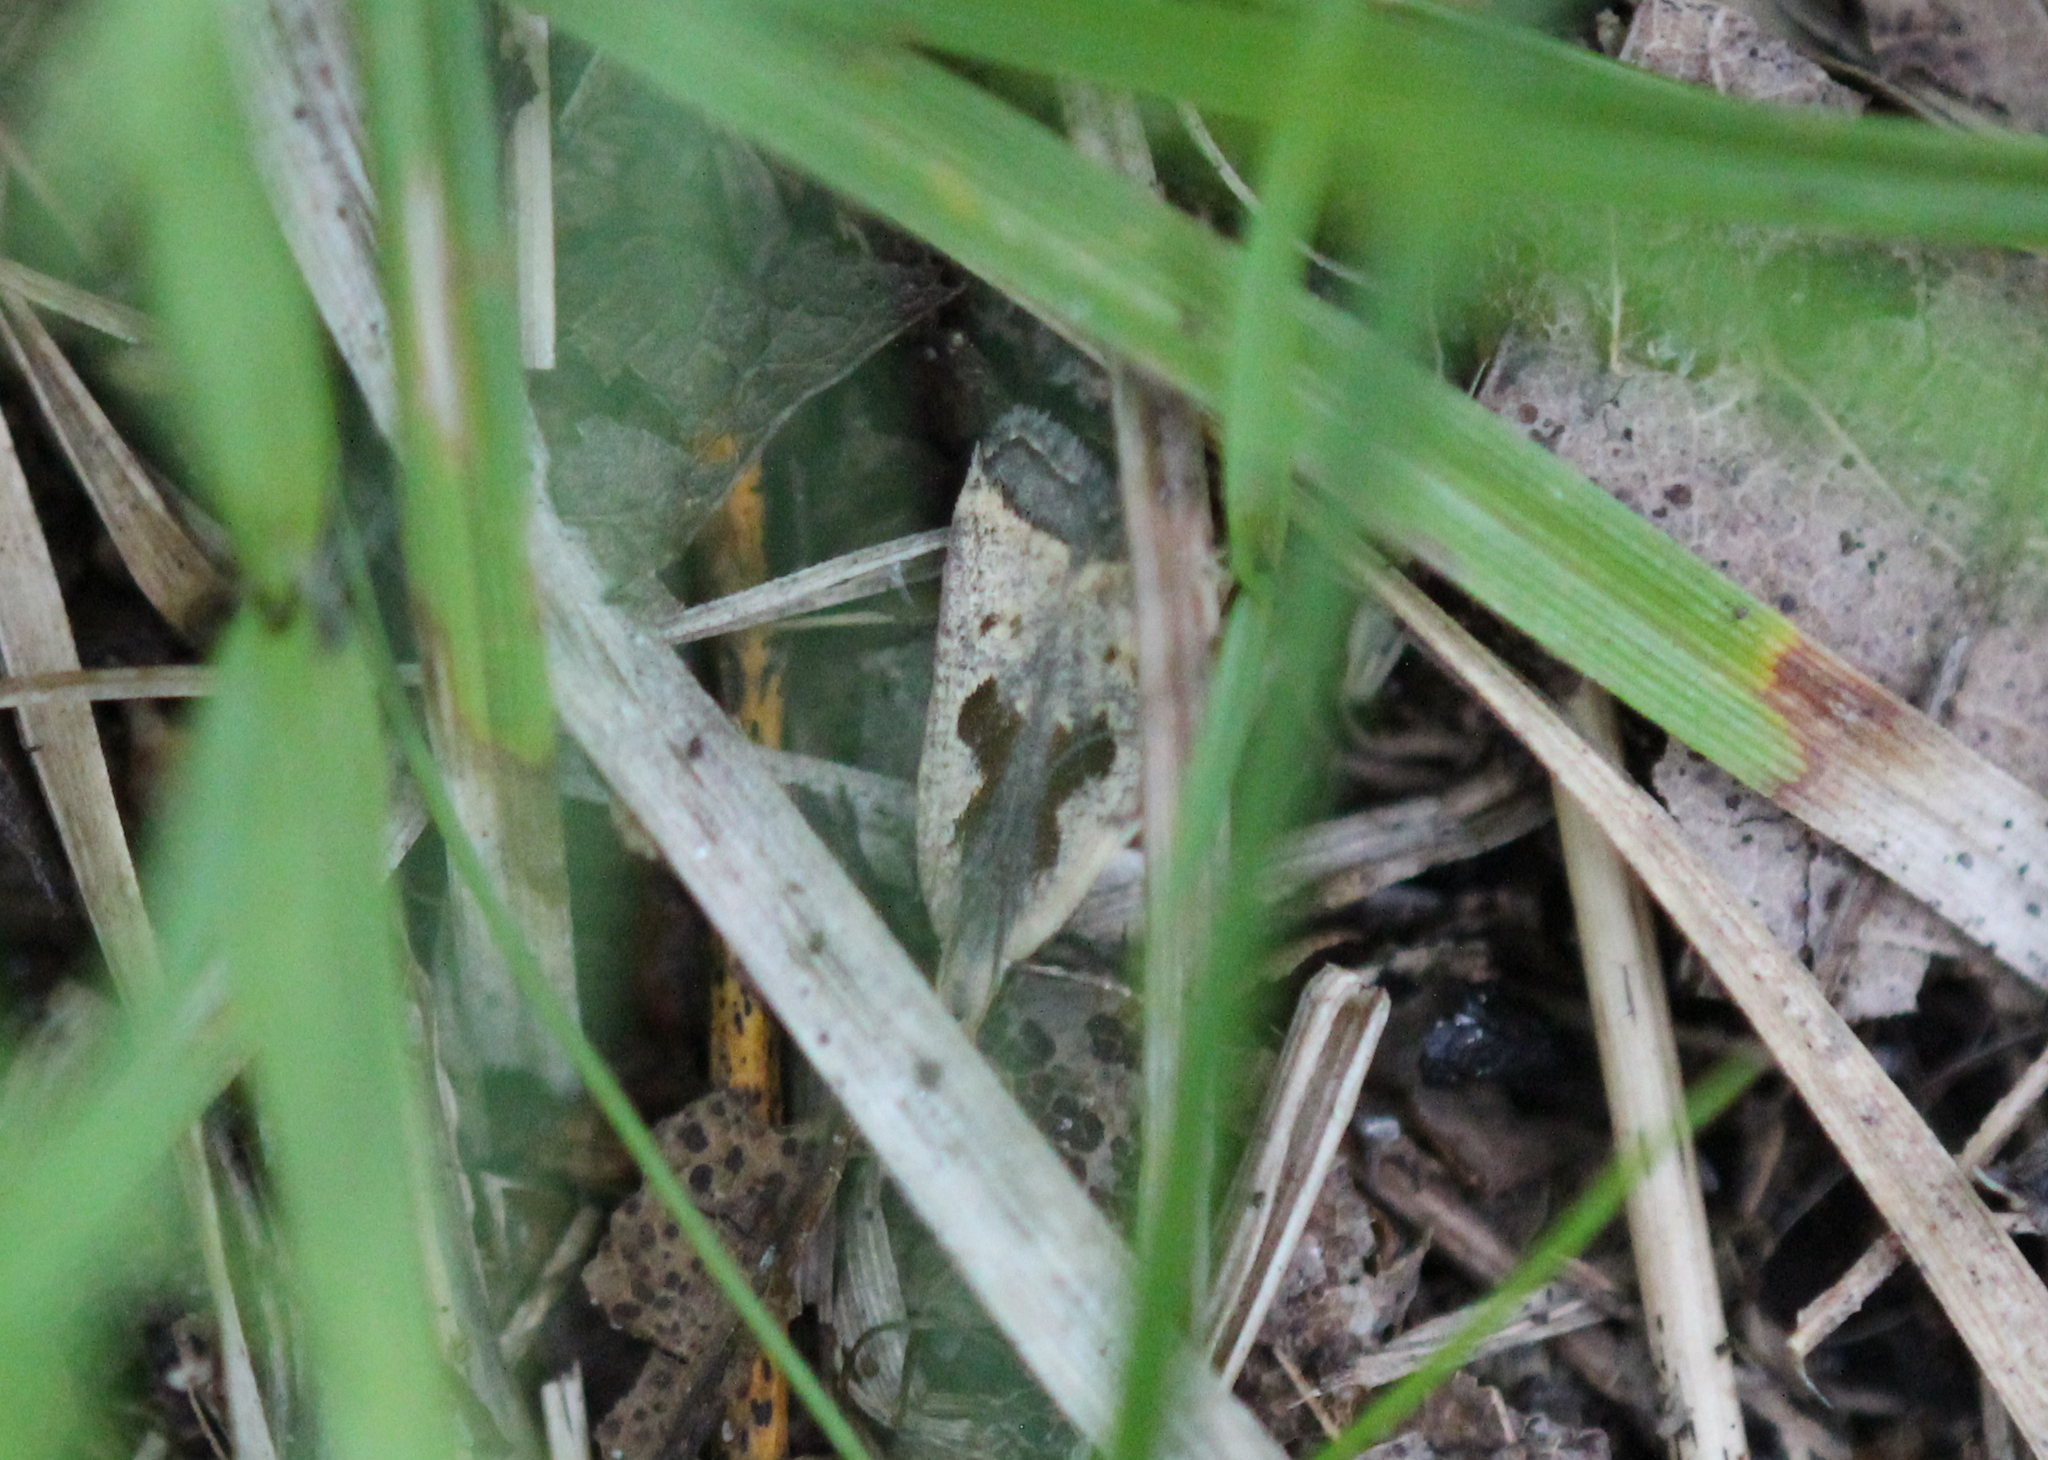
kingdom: Animalia
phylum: Arthropoda
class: Insecta
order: Lepidoptera
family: Gelechiidae
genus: Dichomeris
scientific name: Dichomeris furia
